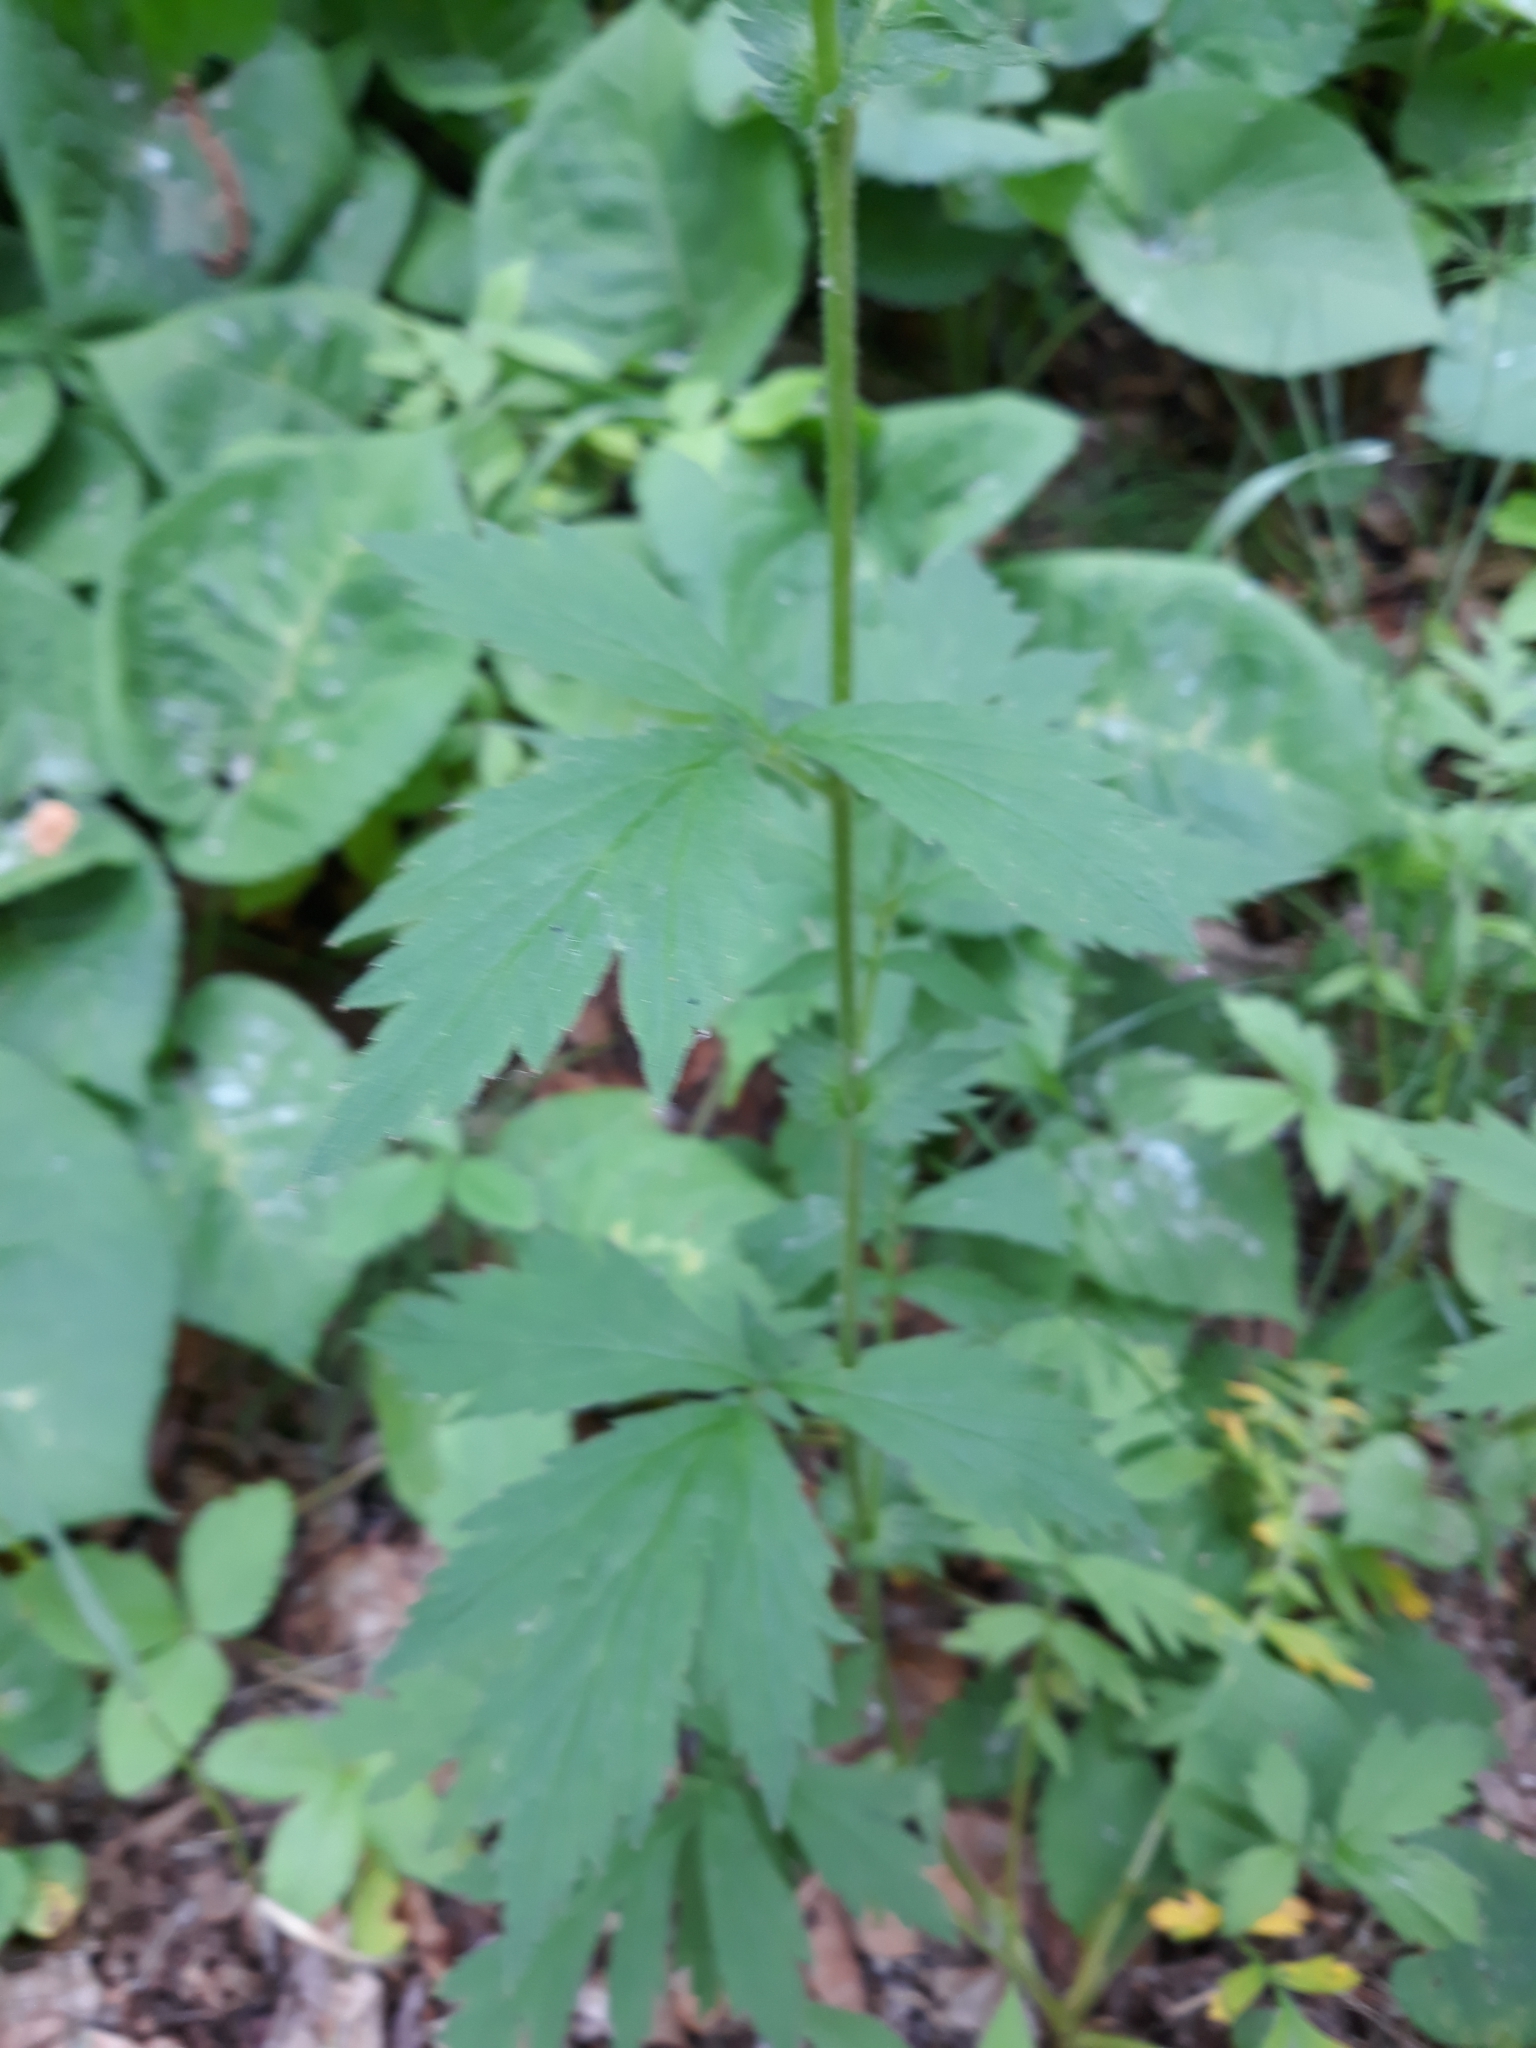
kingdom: Plantae
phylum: Tracheophyta
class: Magnoliopsida
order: Rosales
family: Rosaceae
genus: Geum
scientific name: Geum aleppicum
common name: Yellow avens
